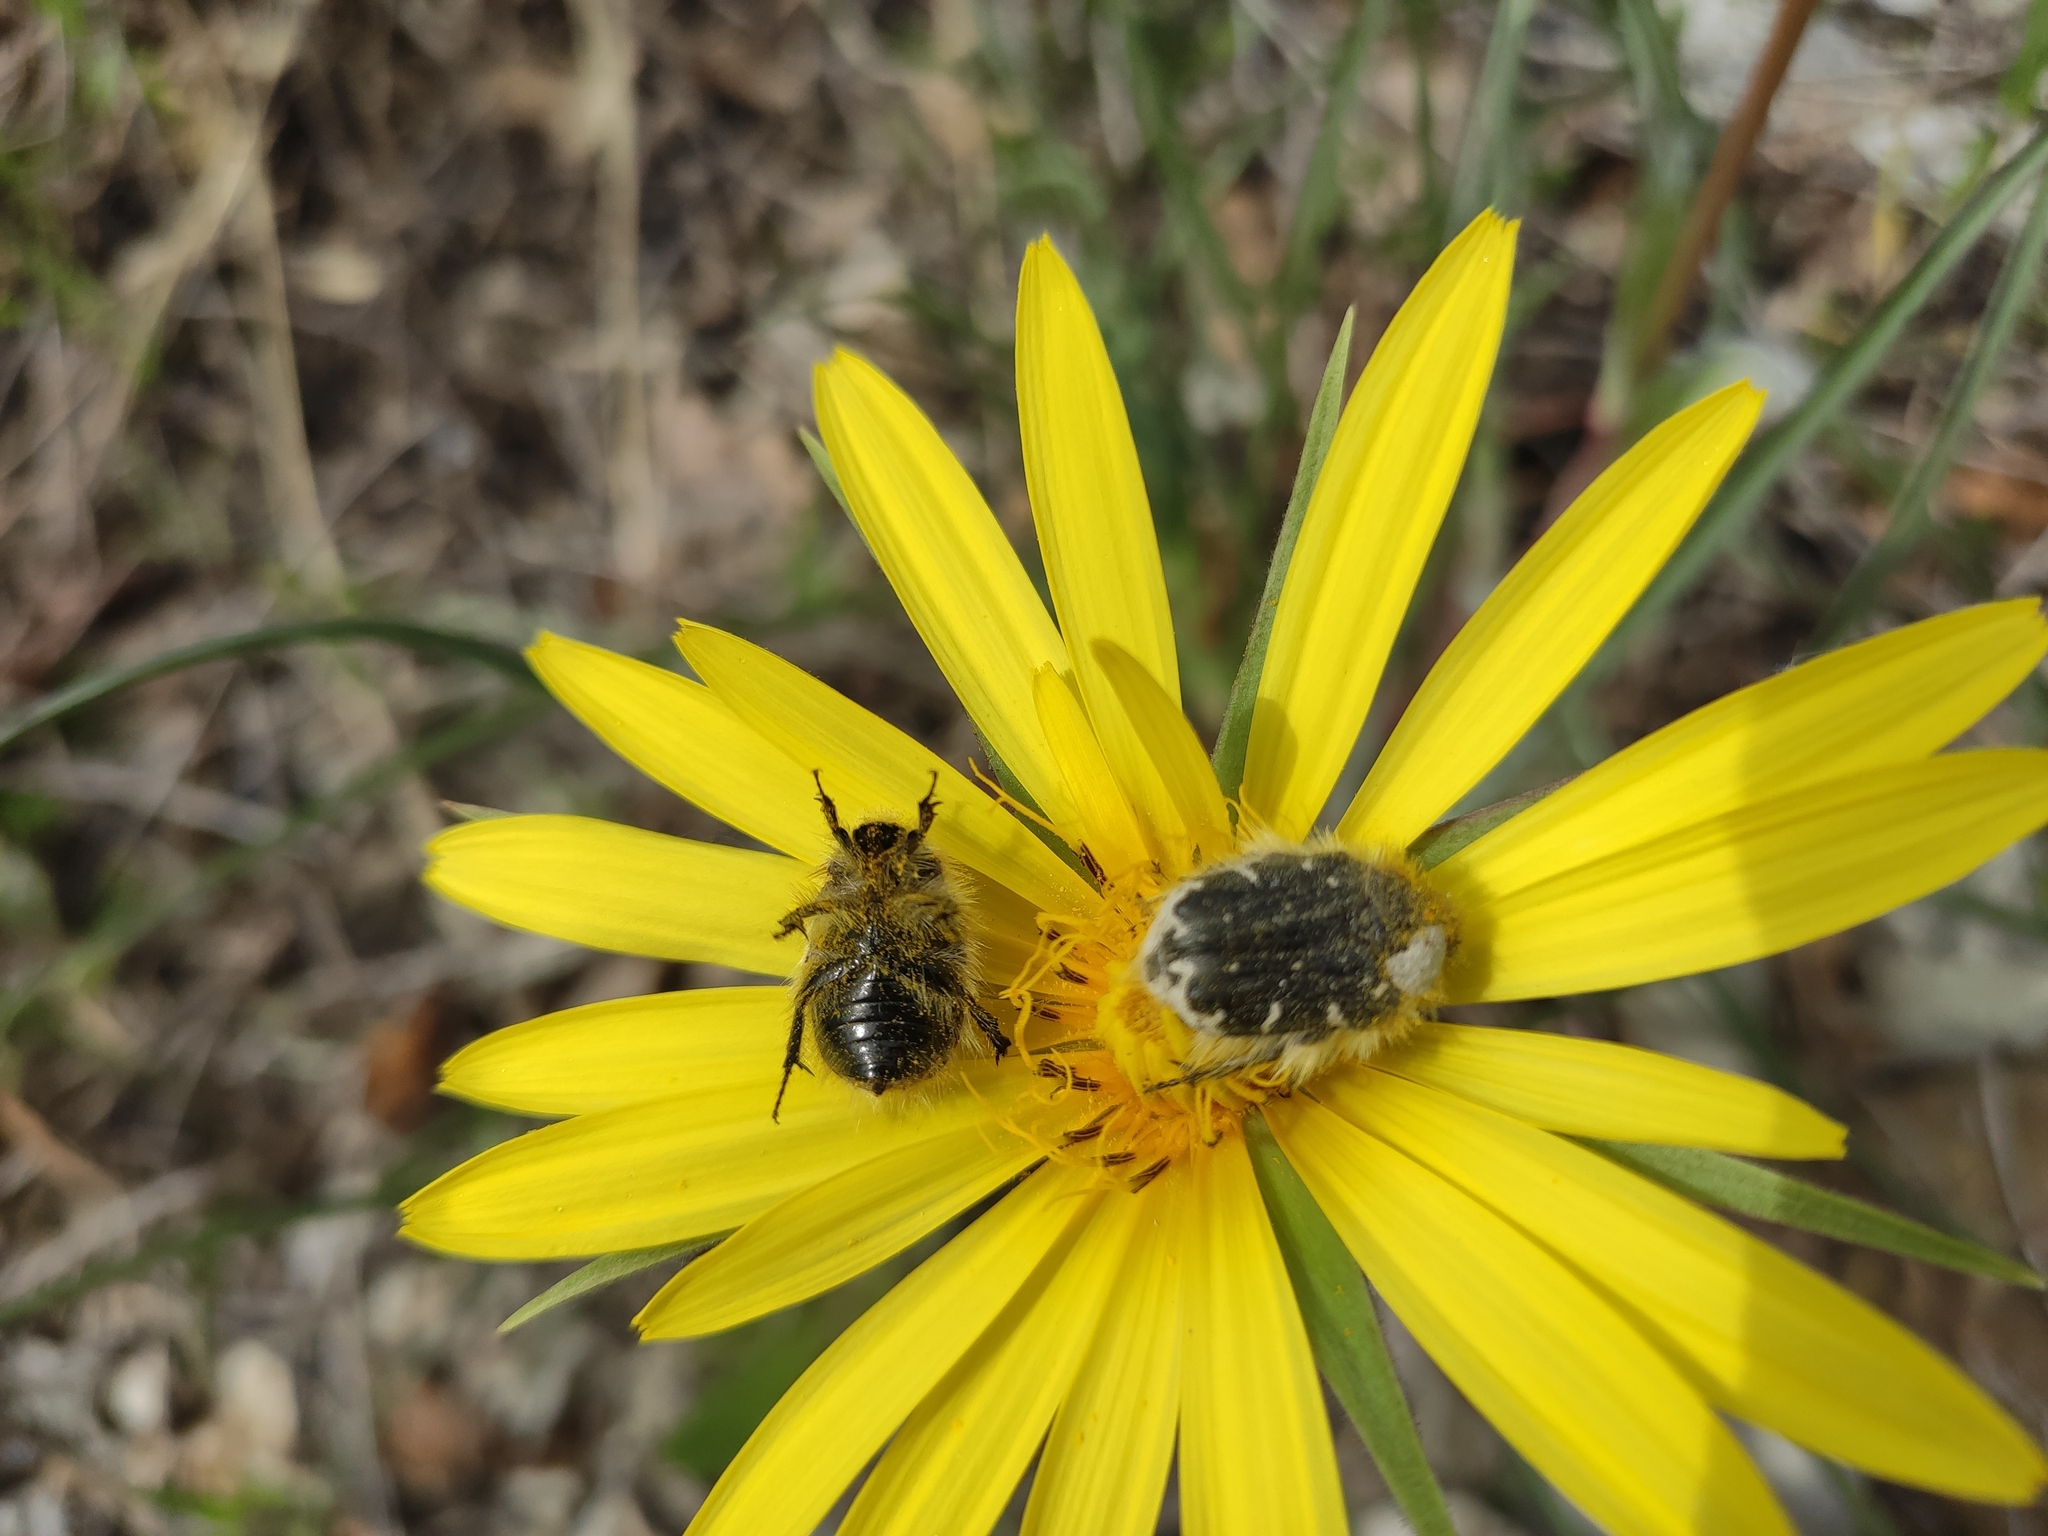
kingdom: Animalia
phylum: Arthropoda
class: Insecta
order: Coleoptera
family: Scarabaeidae
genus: Tropinota
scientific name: Tropinota hirta
